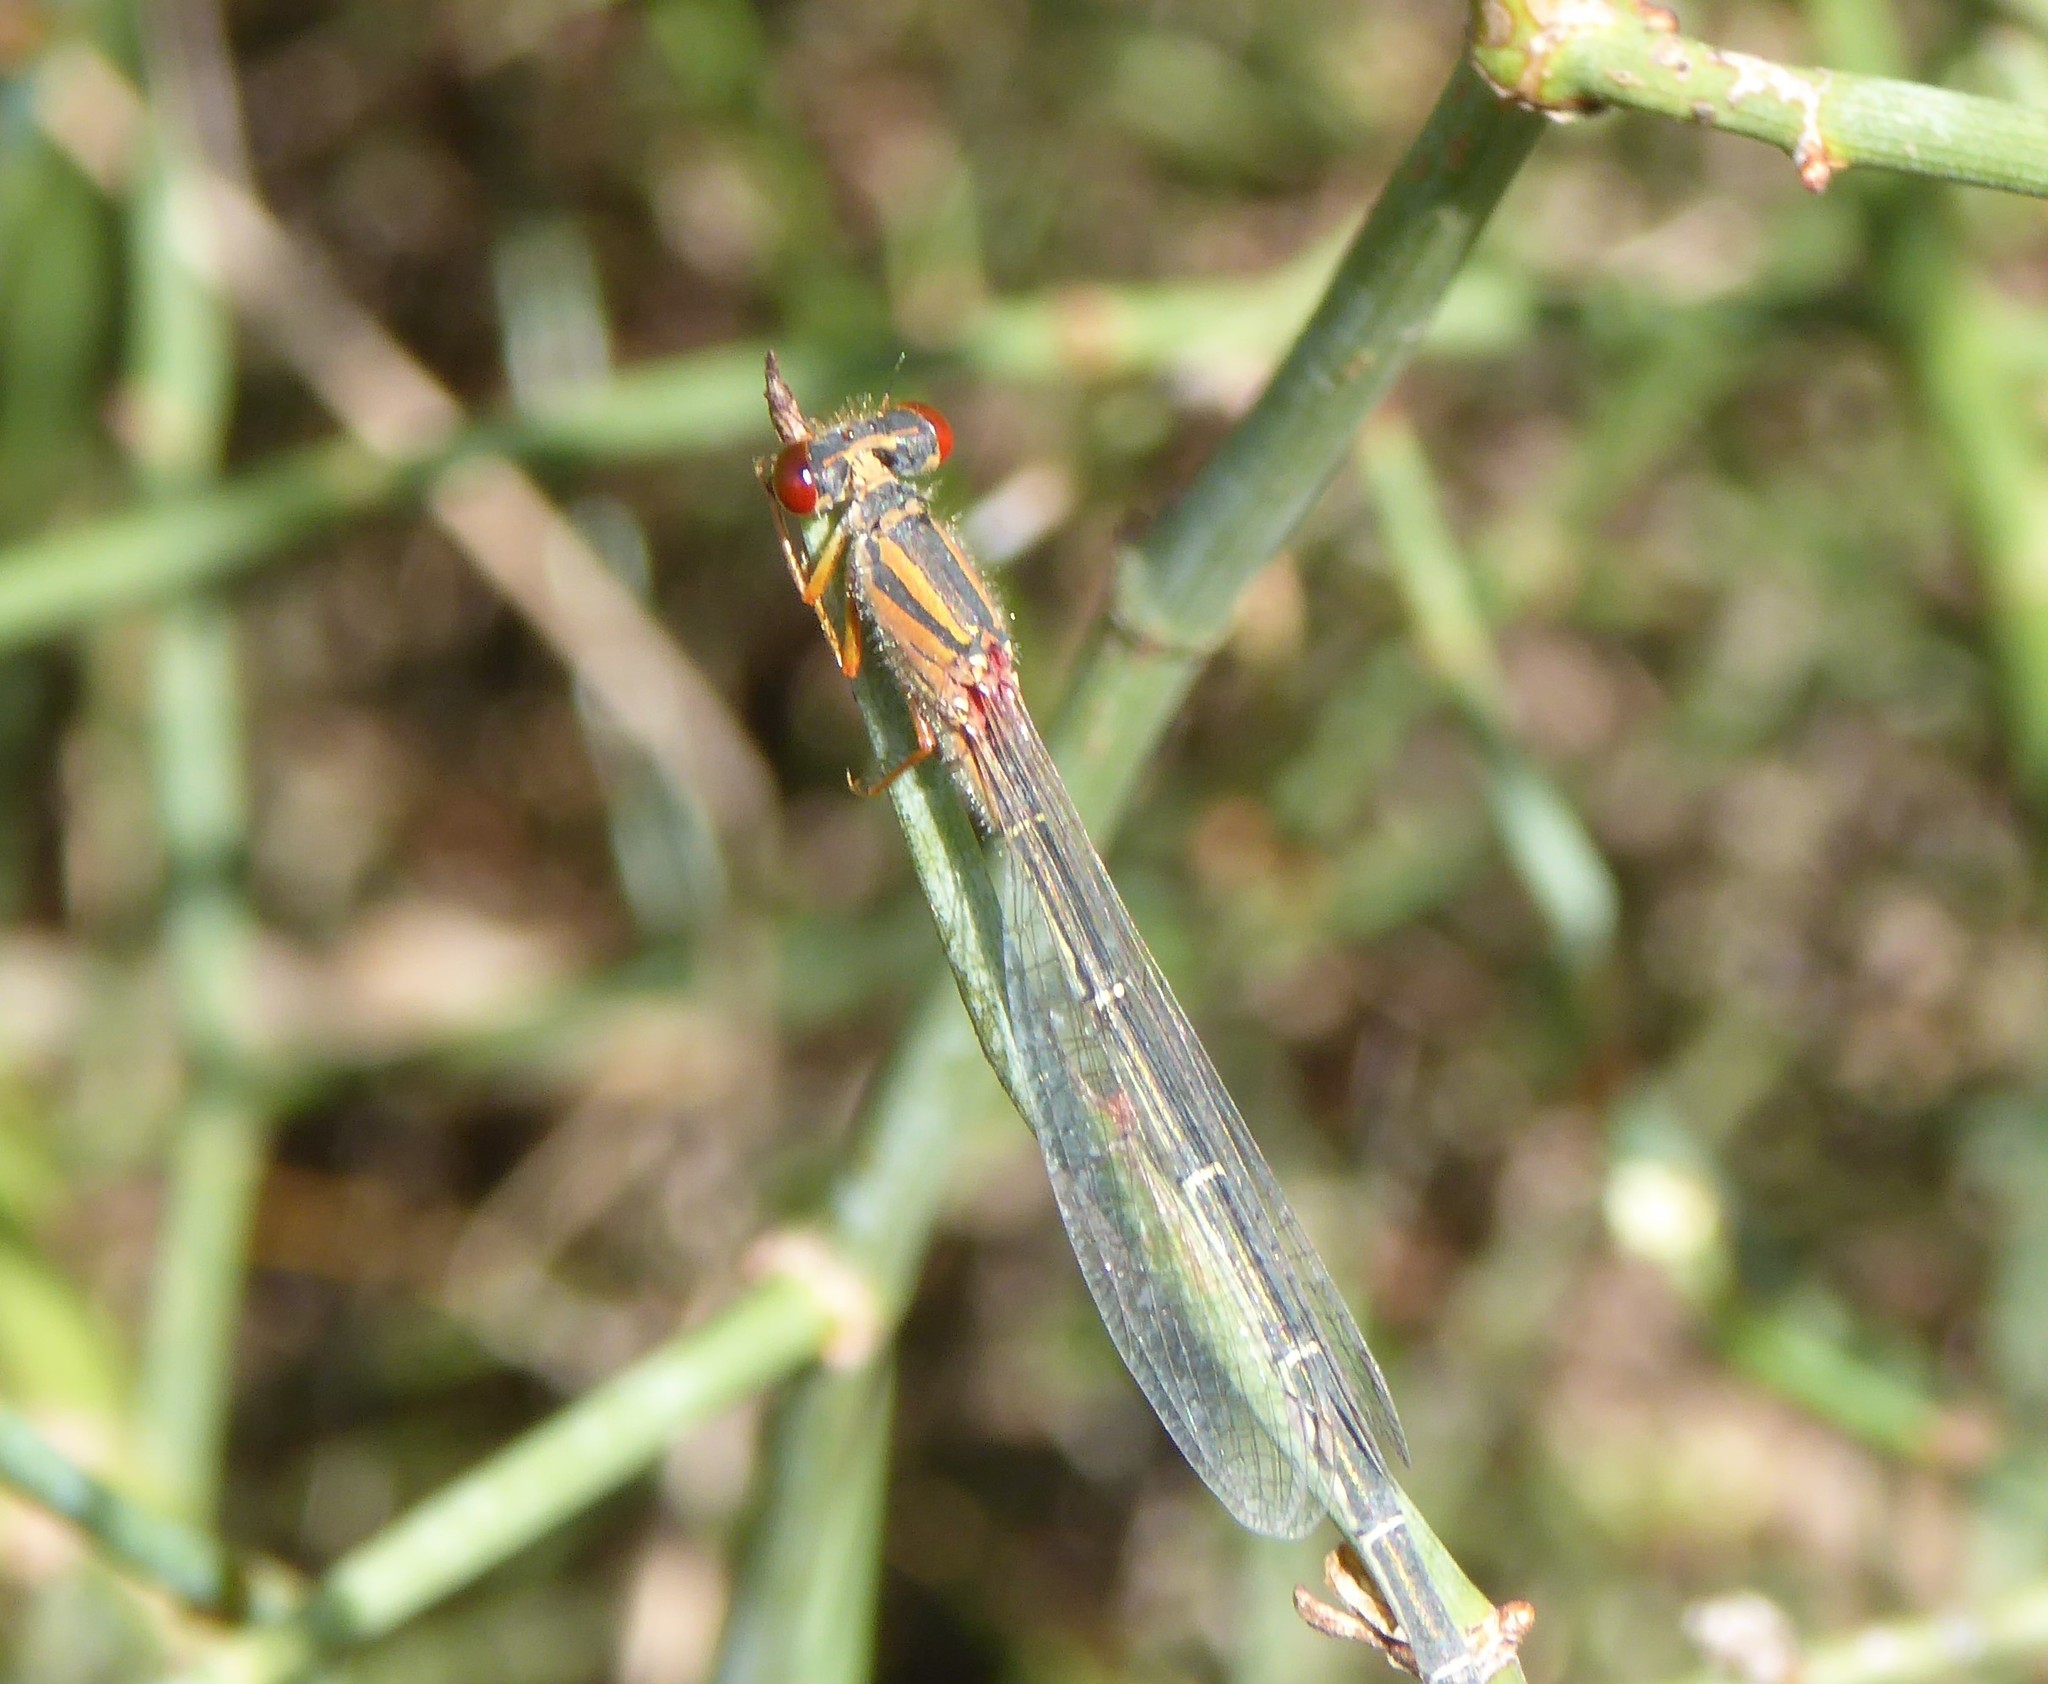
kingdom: Animalia
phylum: Arthropoda
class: Insecta
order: Odonata
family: Coenagrionidae
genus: Xanthagrion
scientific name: Xanthagrion erythroneurum
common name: Red and blue damsel
